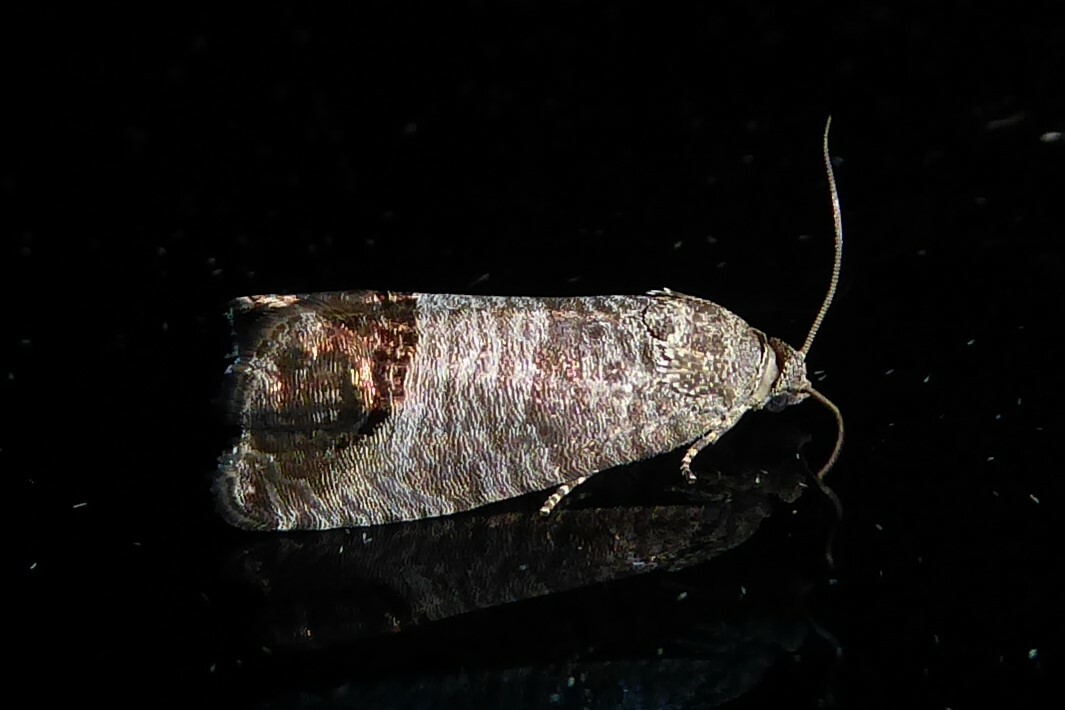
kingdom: Animalia
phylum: Arthropoda
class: Insecta
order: Lepidoptera
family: Tortricidae
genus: Cydia
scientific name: Cydia pomonella
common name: Codling moth
